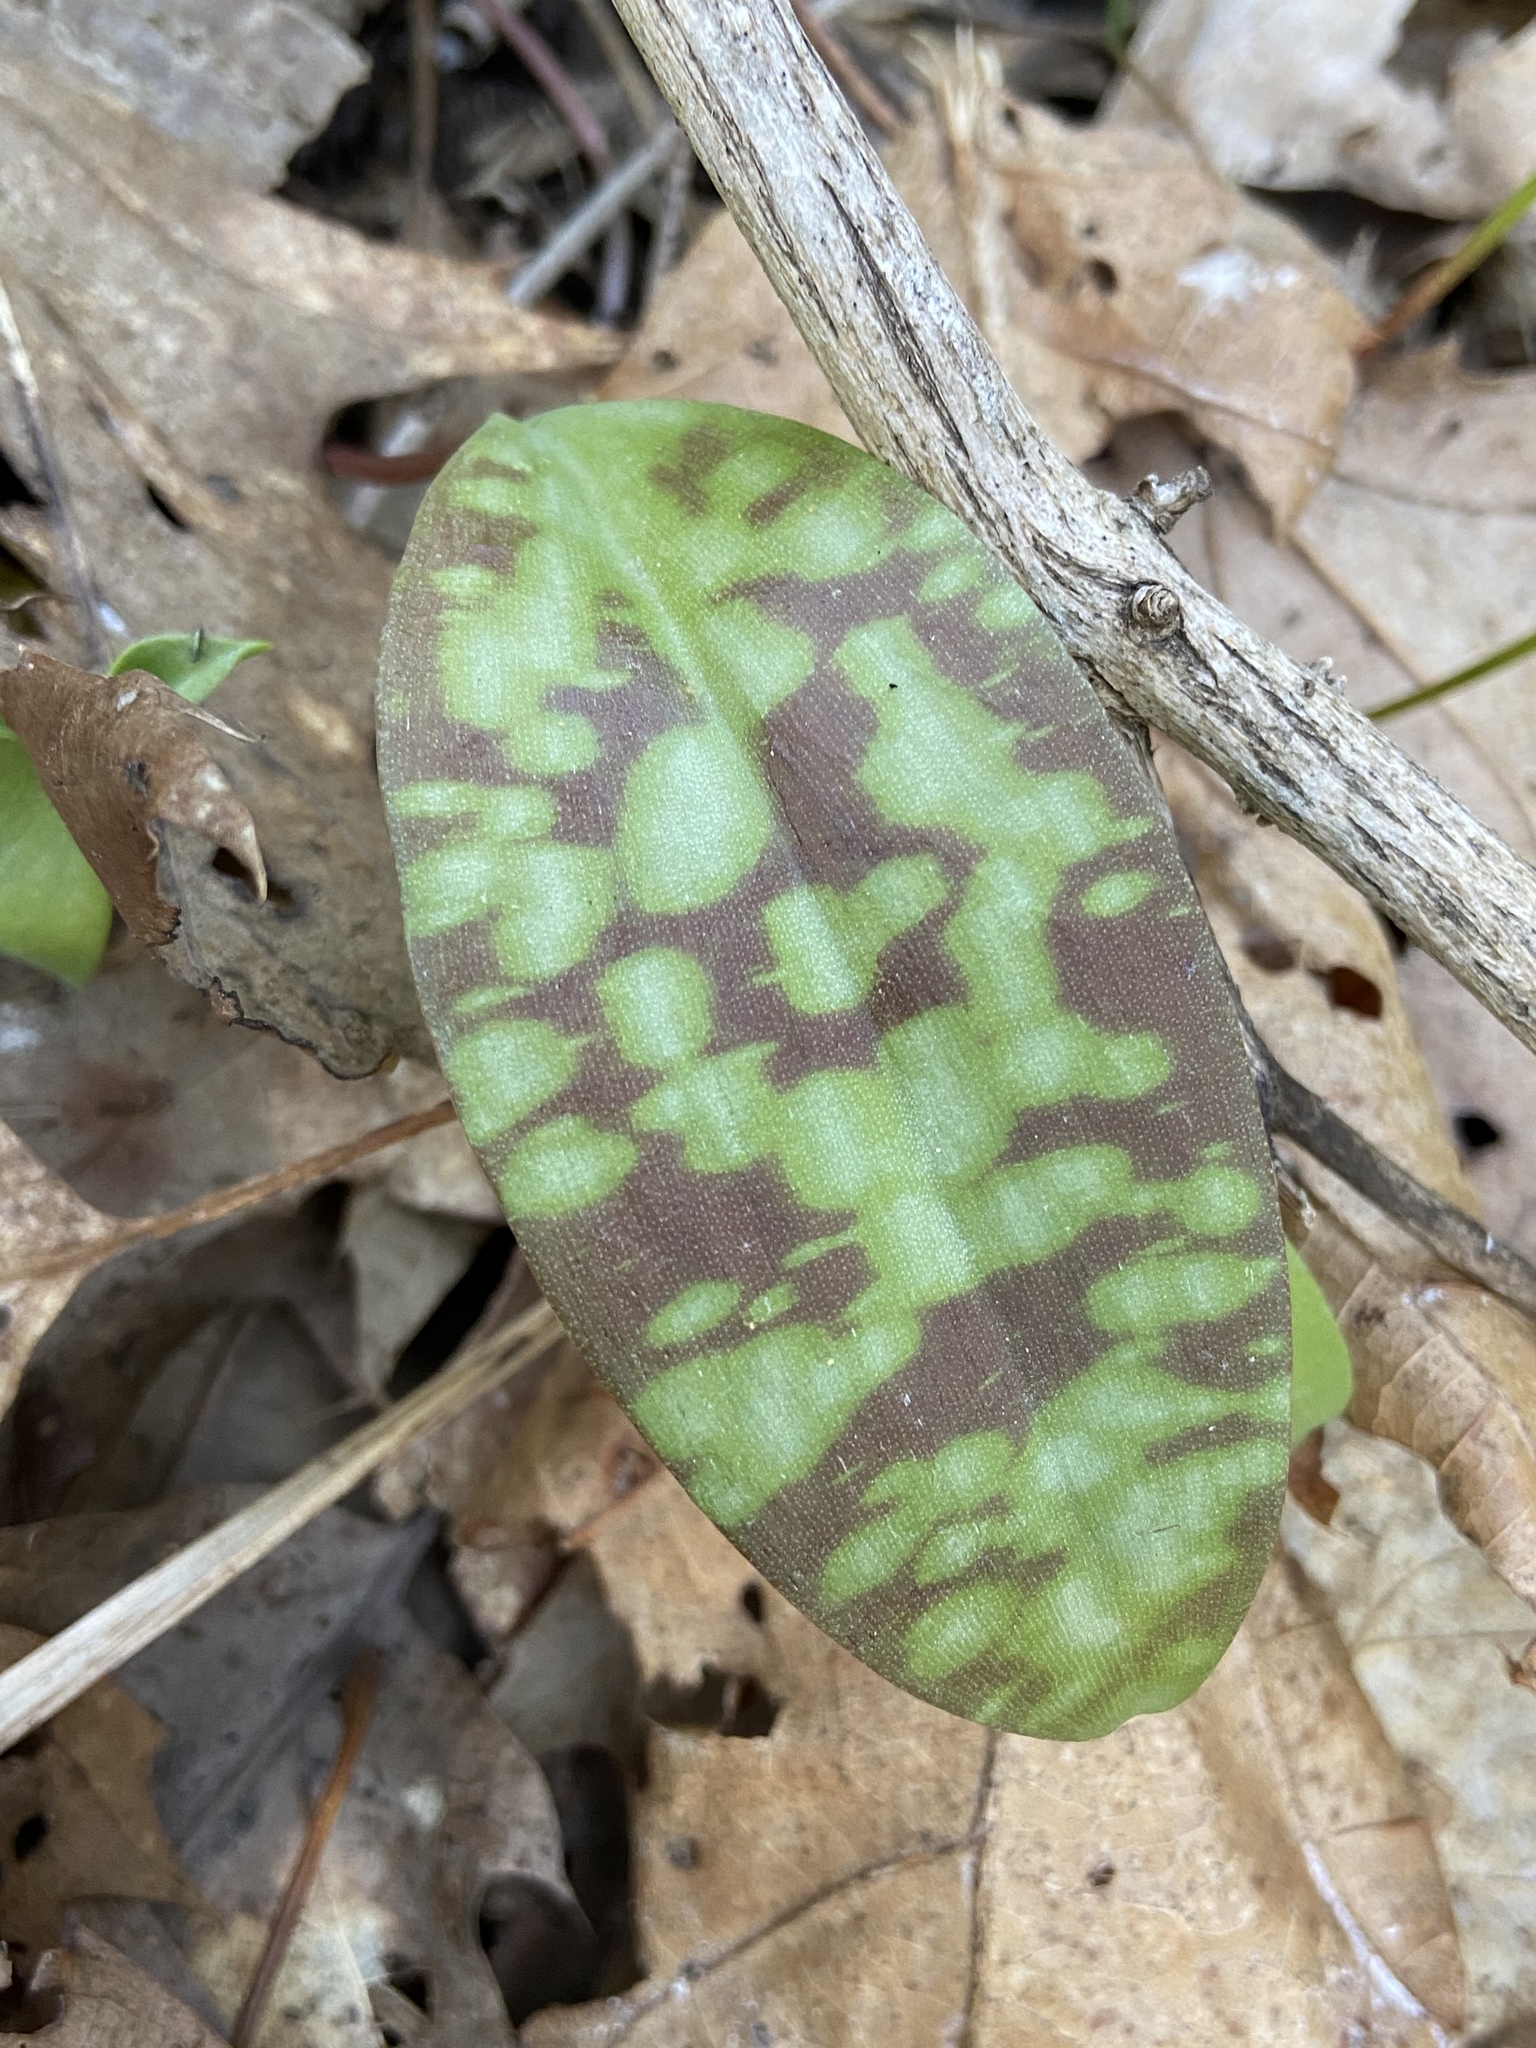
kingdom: Plantae
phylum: Tracheophyta
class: Liliopsida
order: Liliales
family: Liliaceae
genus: Erythronium
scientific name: Erythronium americanum
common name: Yellow adder's-tongue
